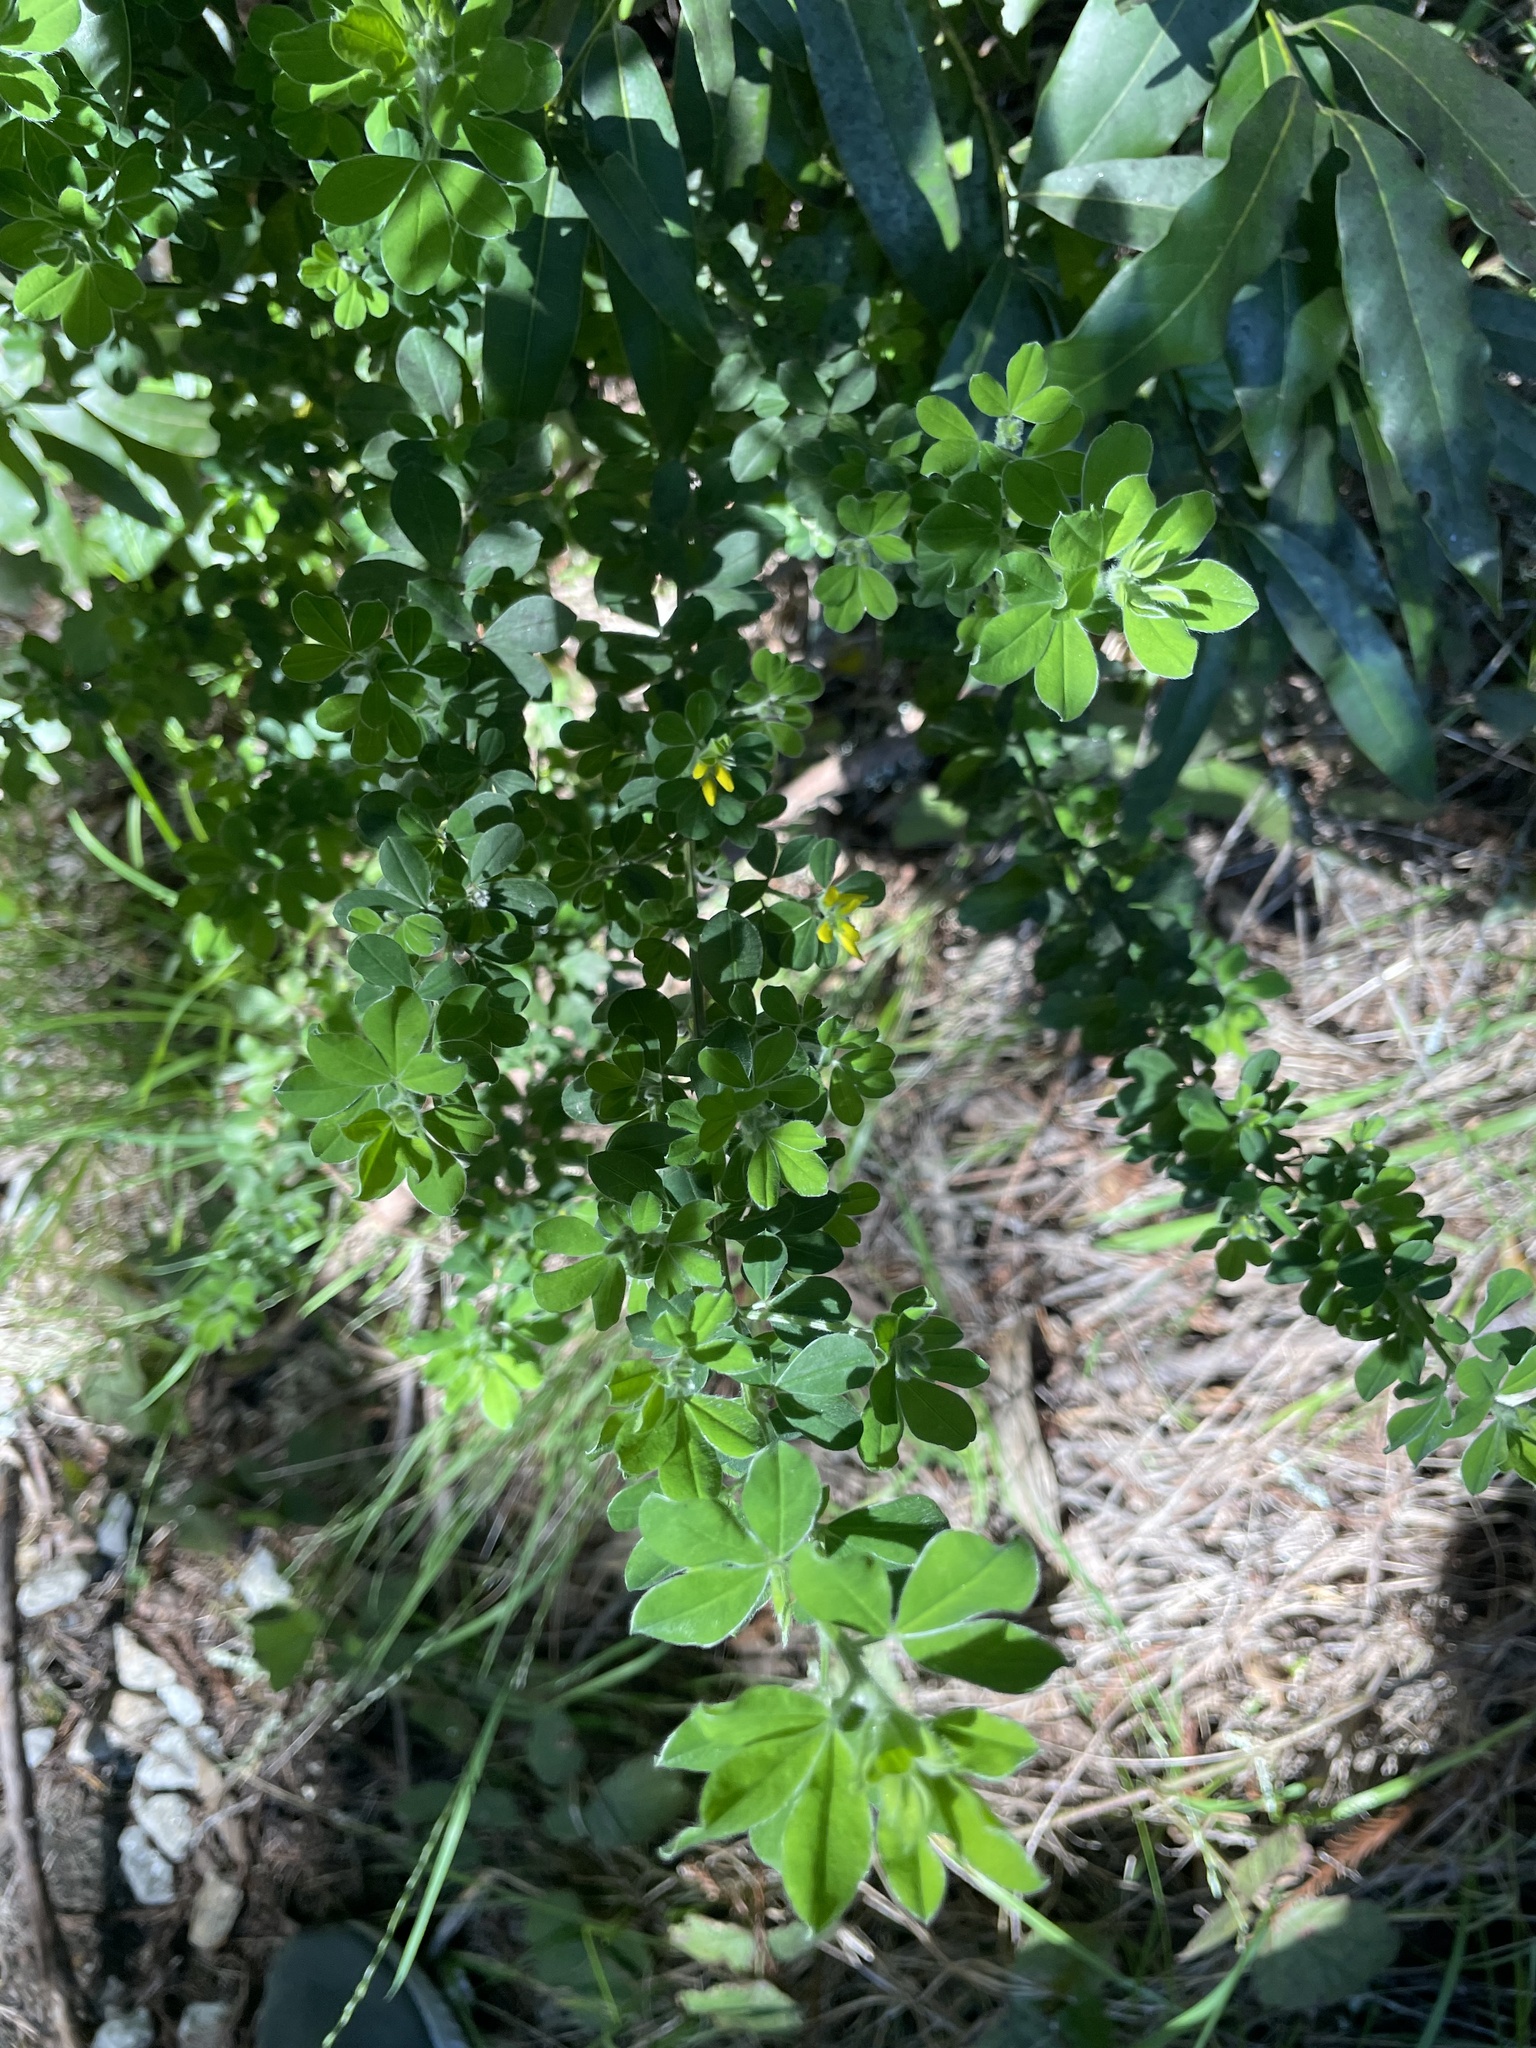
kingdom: Plantae
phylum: Tracheophyta
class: Magnoliopsida
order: Fabales
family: Fabaceae
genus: Genista
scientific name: Genista monspessulana
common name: Montpellier broom
